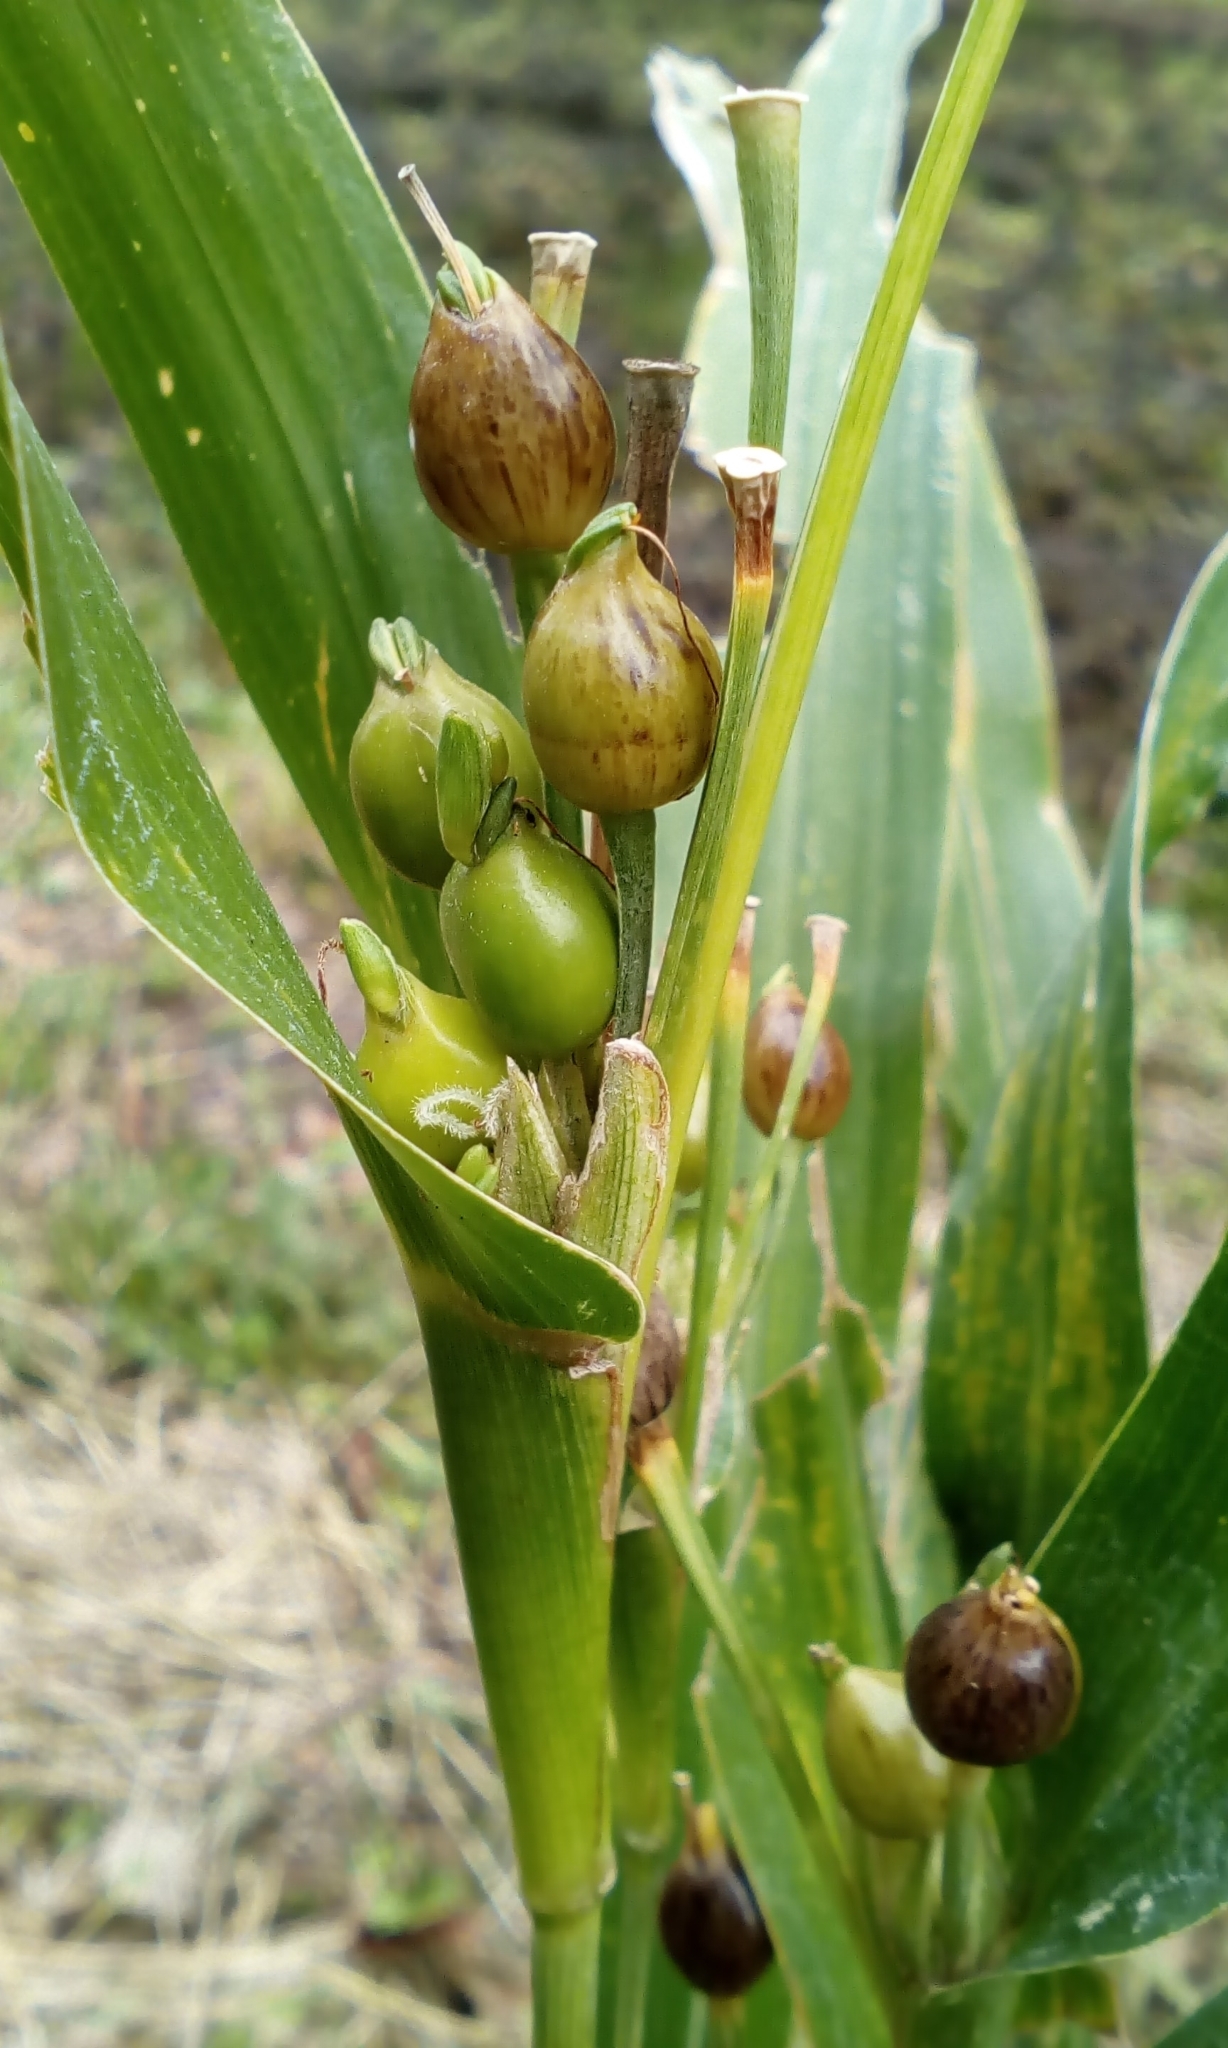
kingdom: Plantae
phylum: Tracheophyta
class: Liliopsida
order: Poales
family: Poaceae
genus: Coix
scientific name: Coix lacryma-jobi
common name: Job's tears
